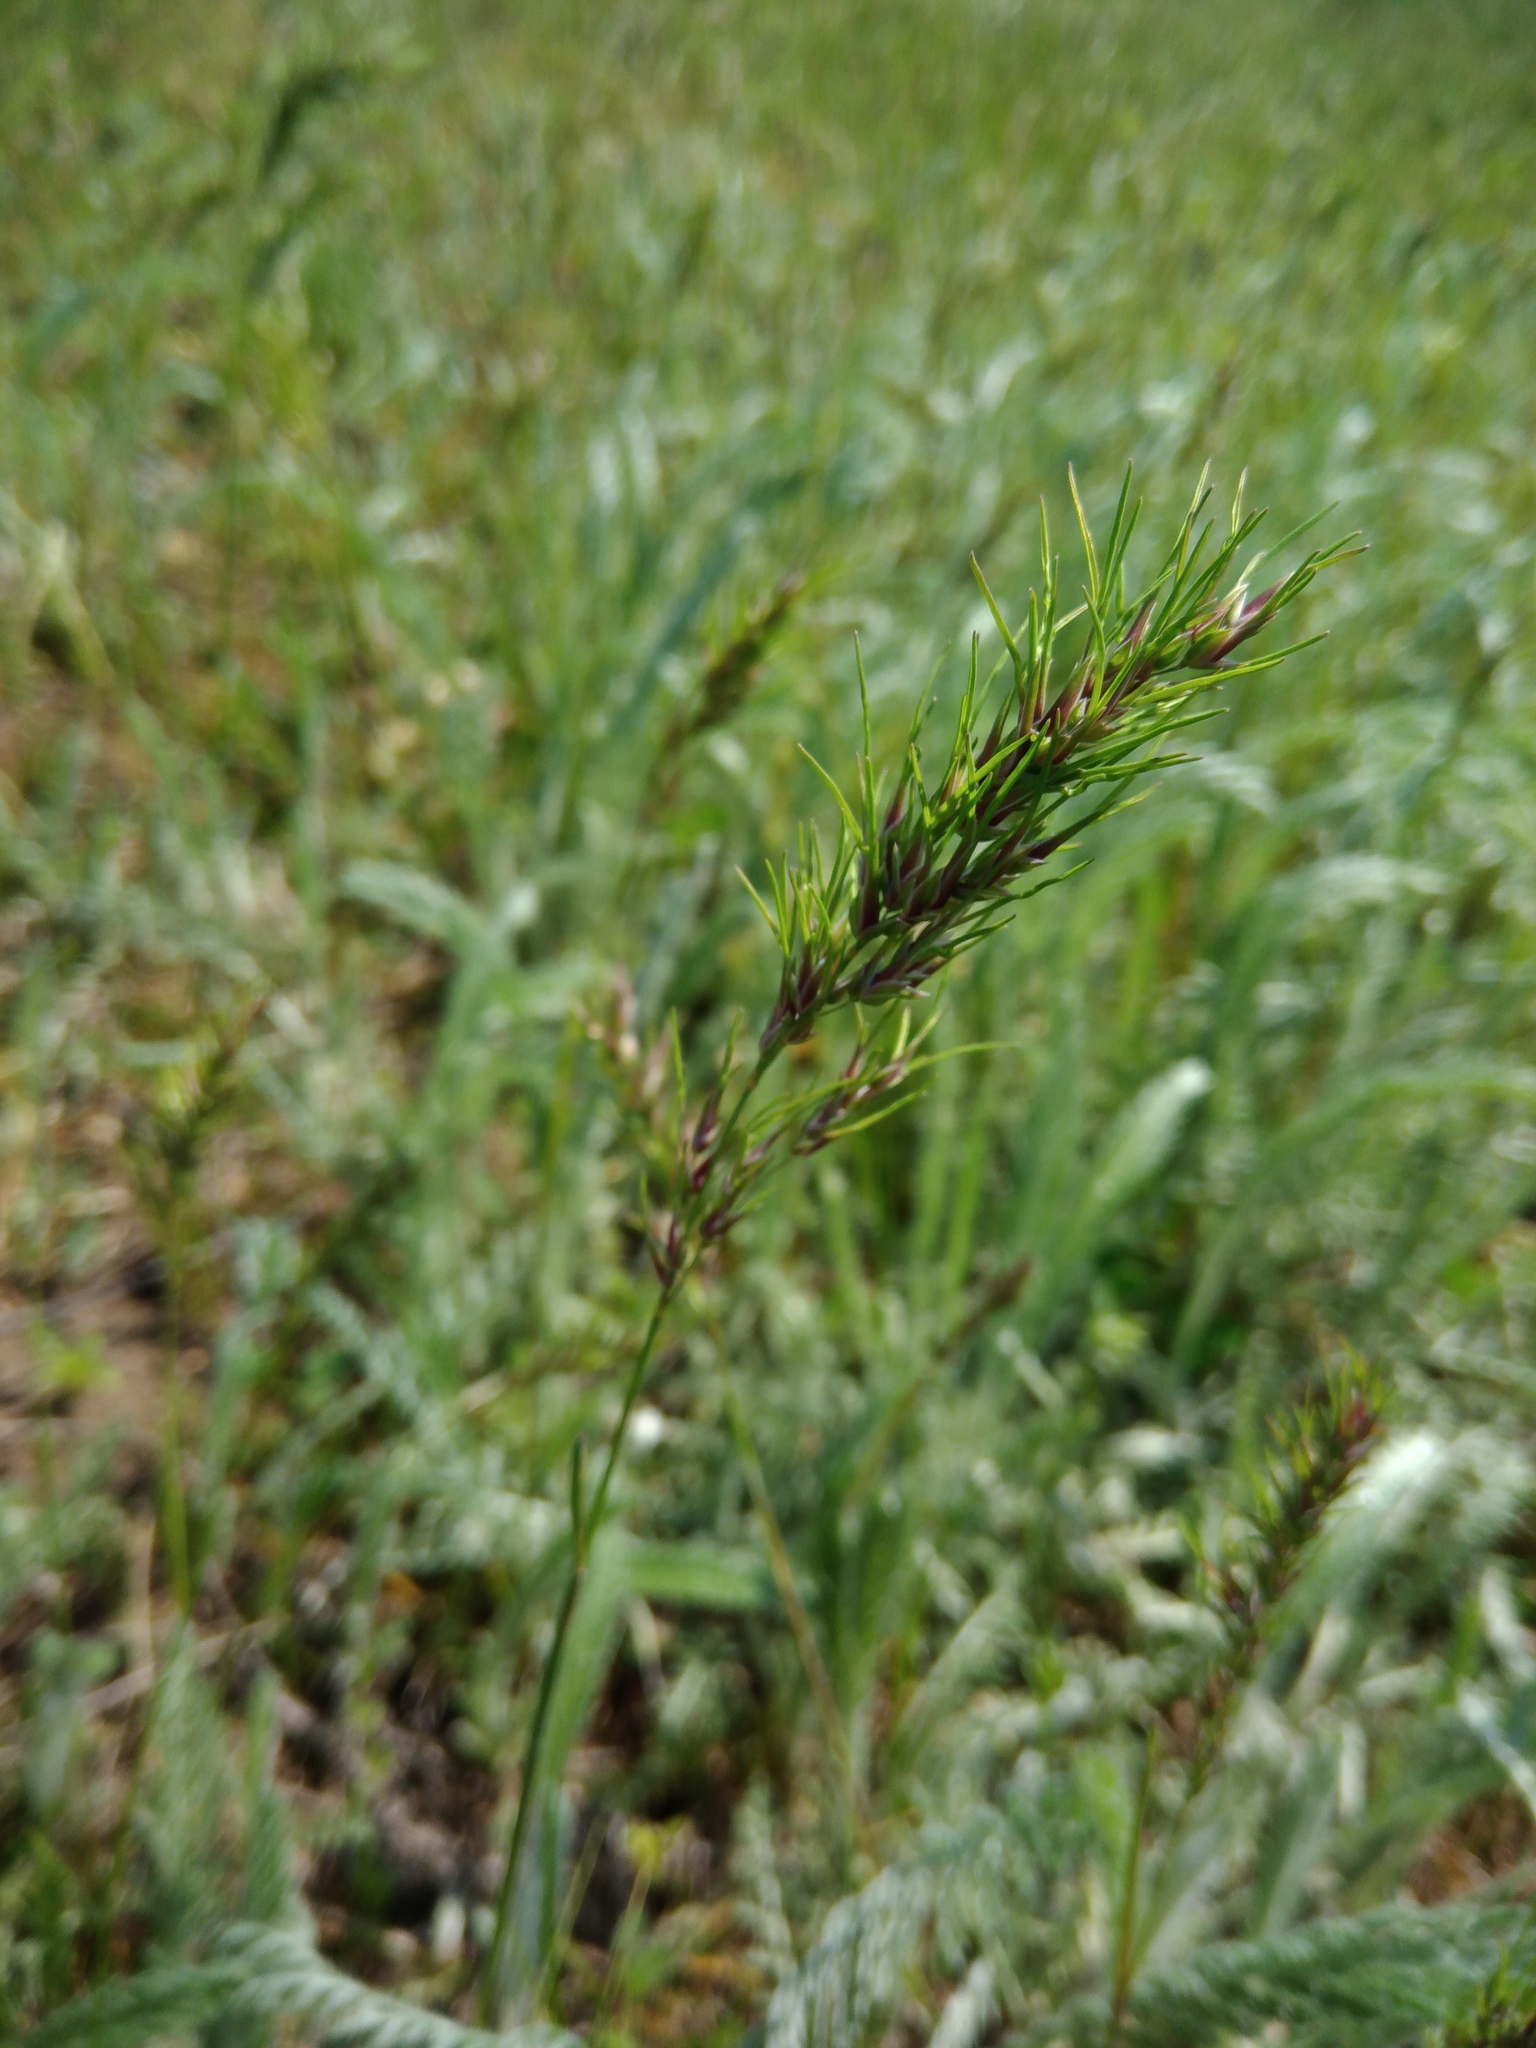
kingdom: Plantae
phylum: Tracheophyta
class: Liliopsida
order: Poales
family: Poaceae
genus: Poa
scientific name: Poa bulbosa
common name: Bulbous bluegrass
